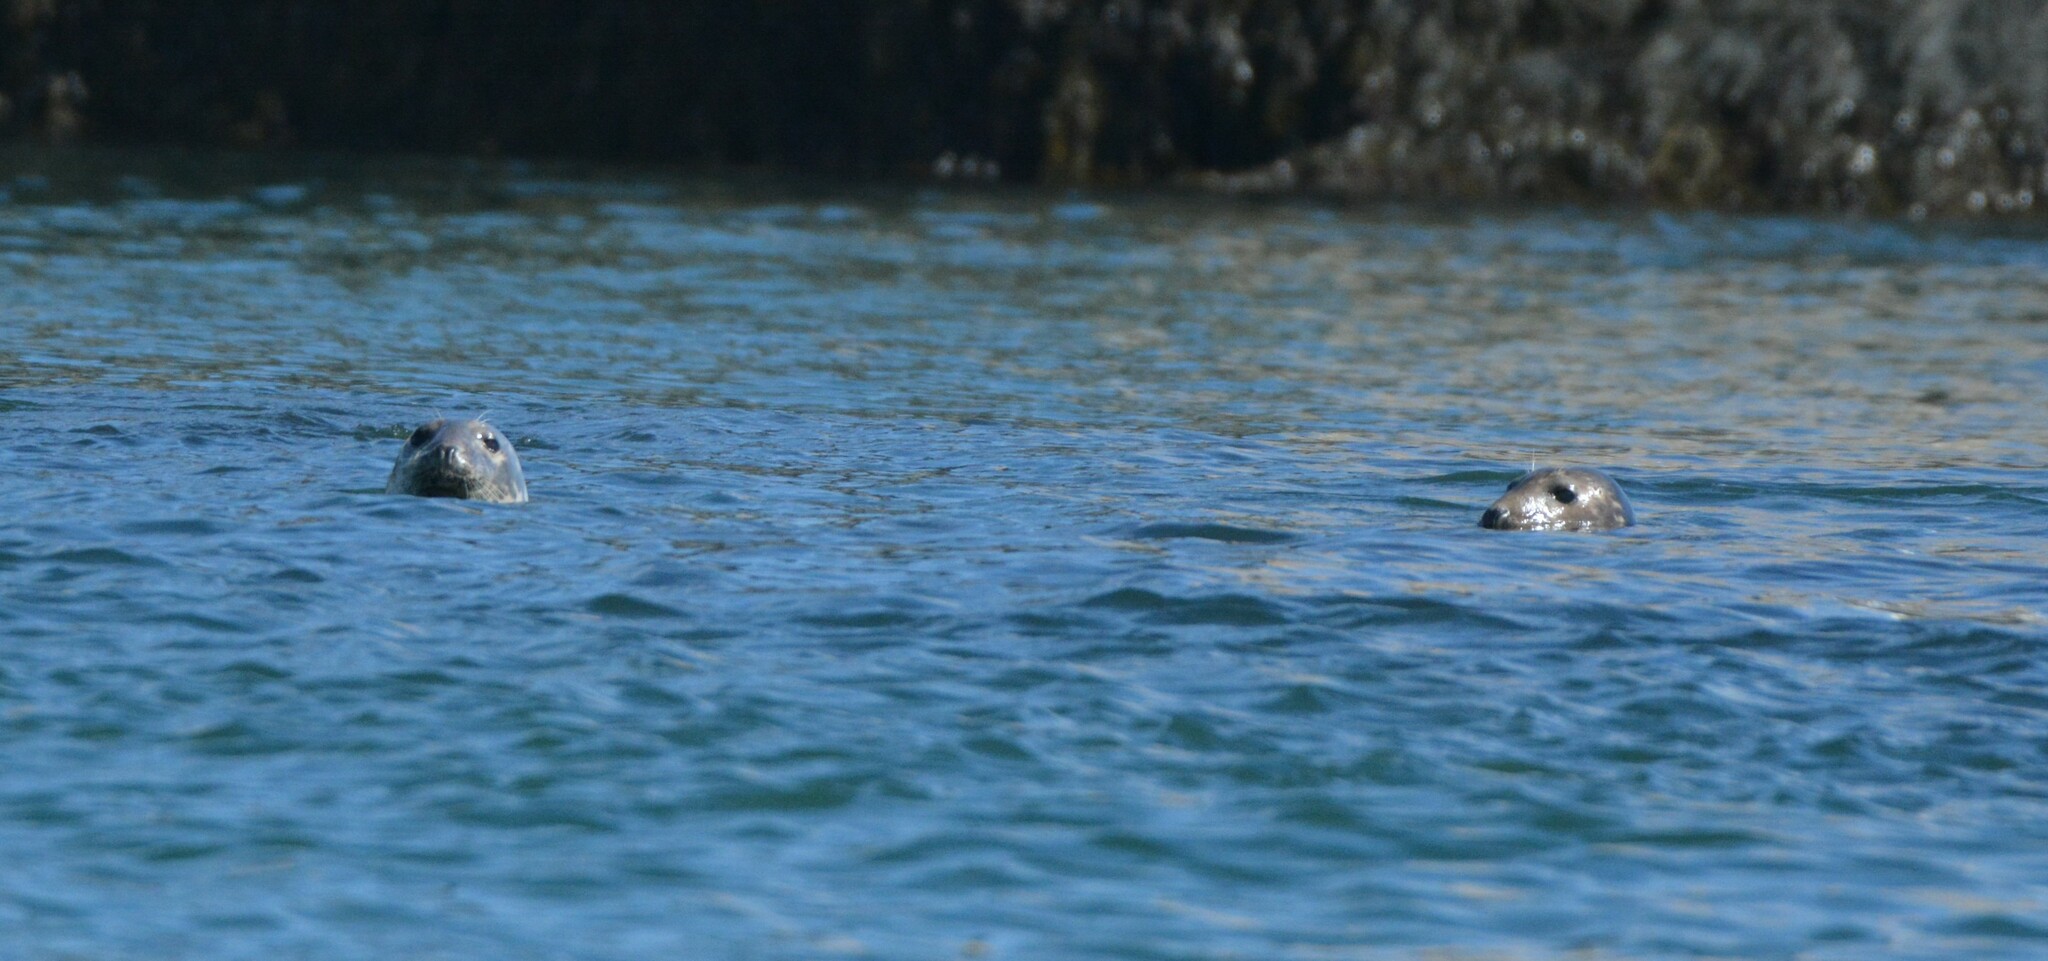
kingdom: Animalia
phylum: Chordata
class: Mammalia
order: Carnivora
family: Phocidae
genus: Halichoerus
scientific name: Halichoerus grypus
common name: Grey seal
